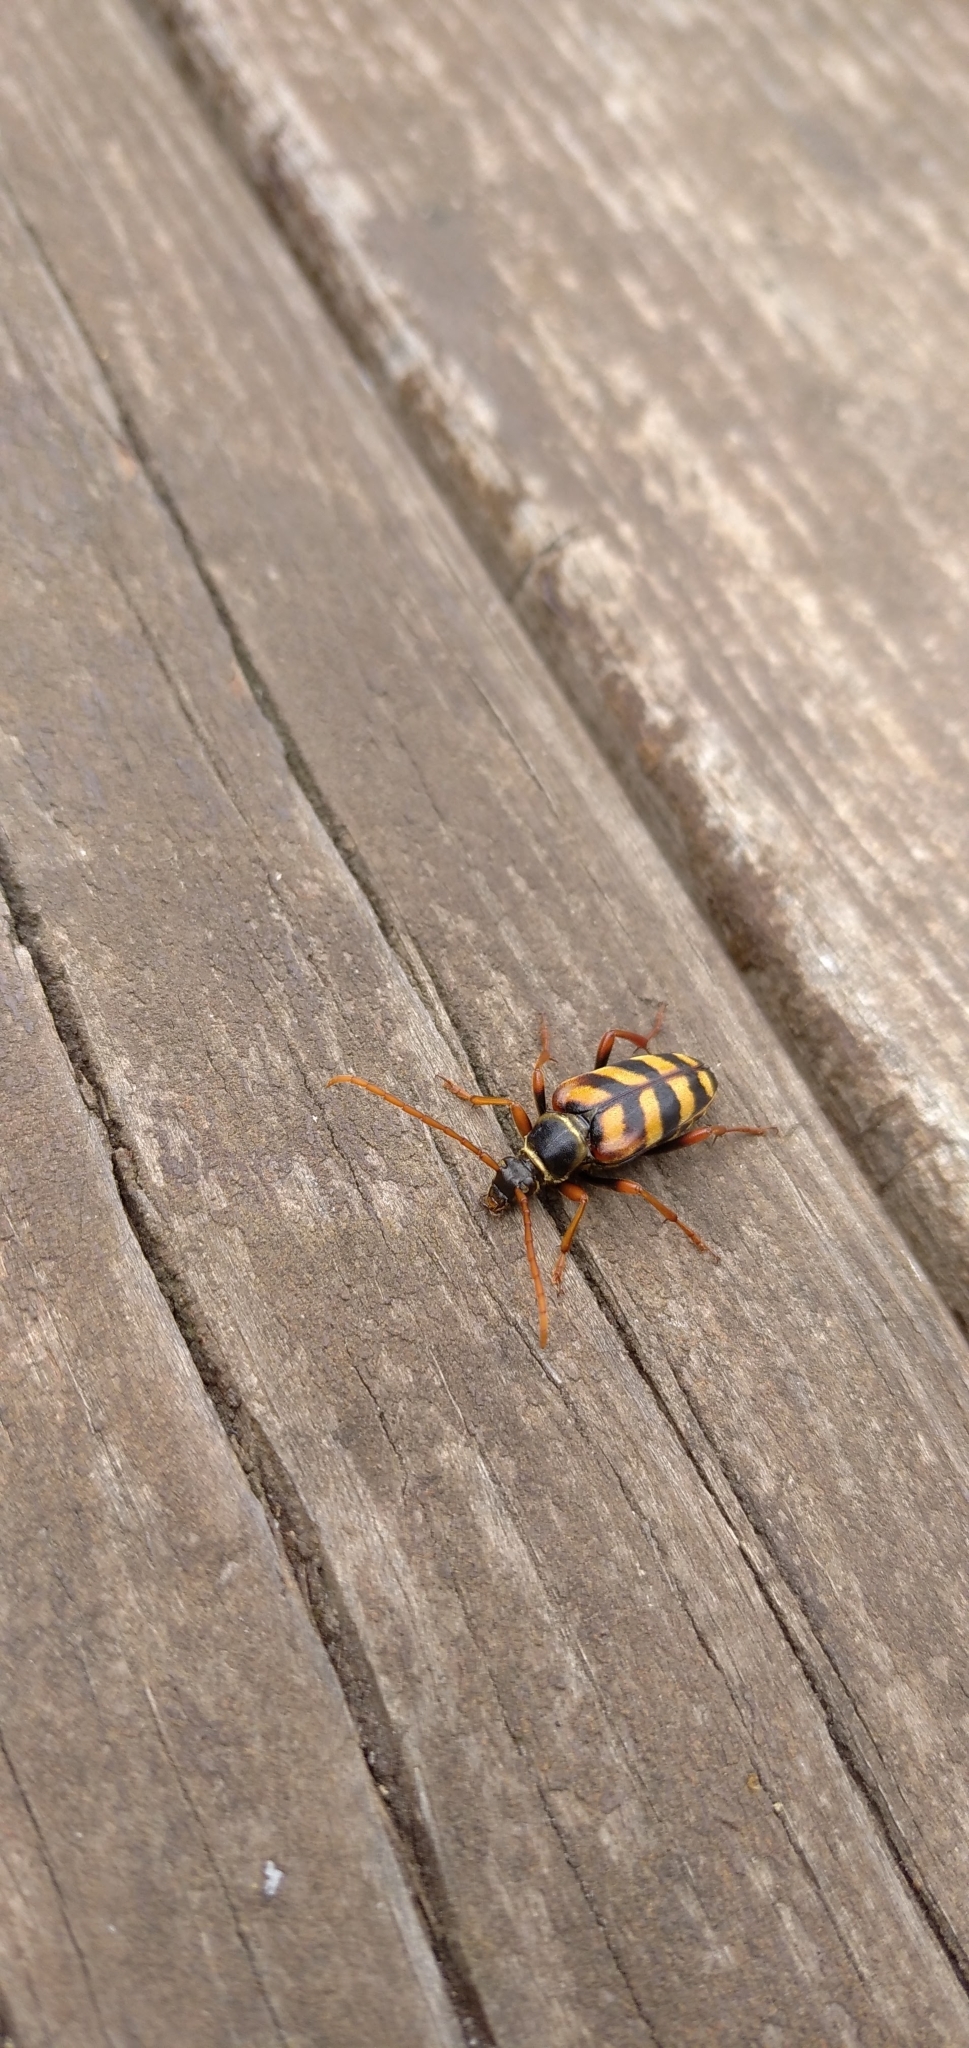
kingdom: Animalia
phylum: Arthropoda
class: Insecta
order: Coleoptera
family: Cerambycidae
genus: Leptura
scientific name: Leptura aurulenta
